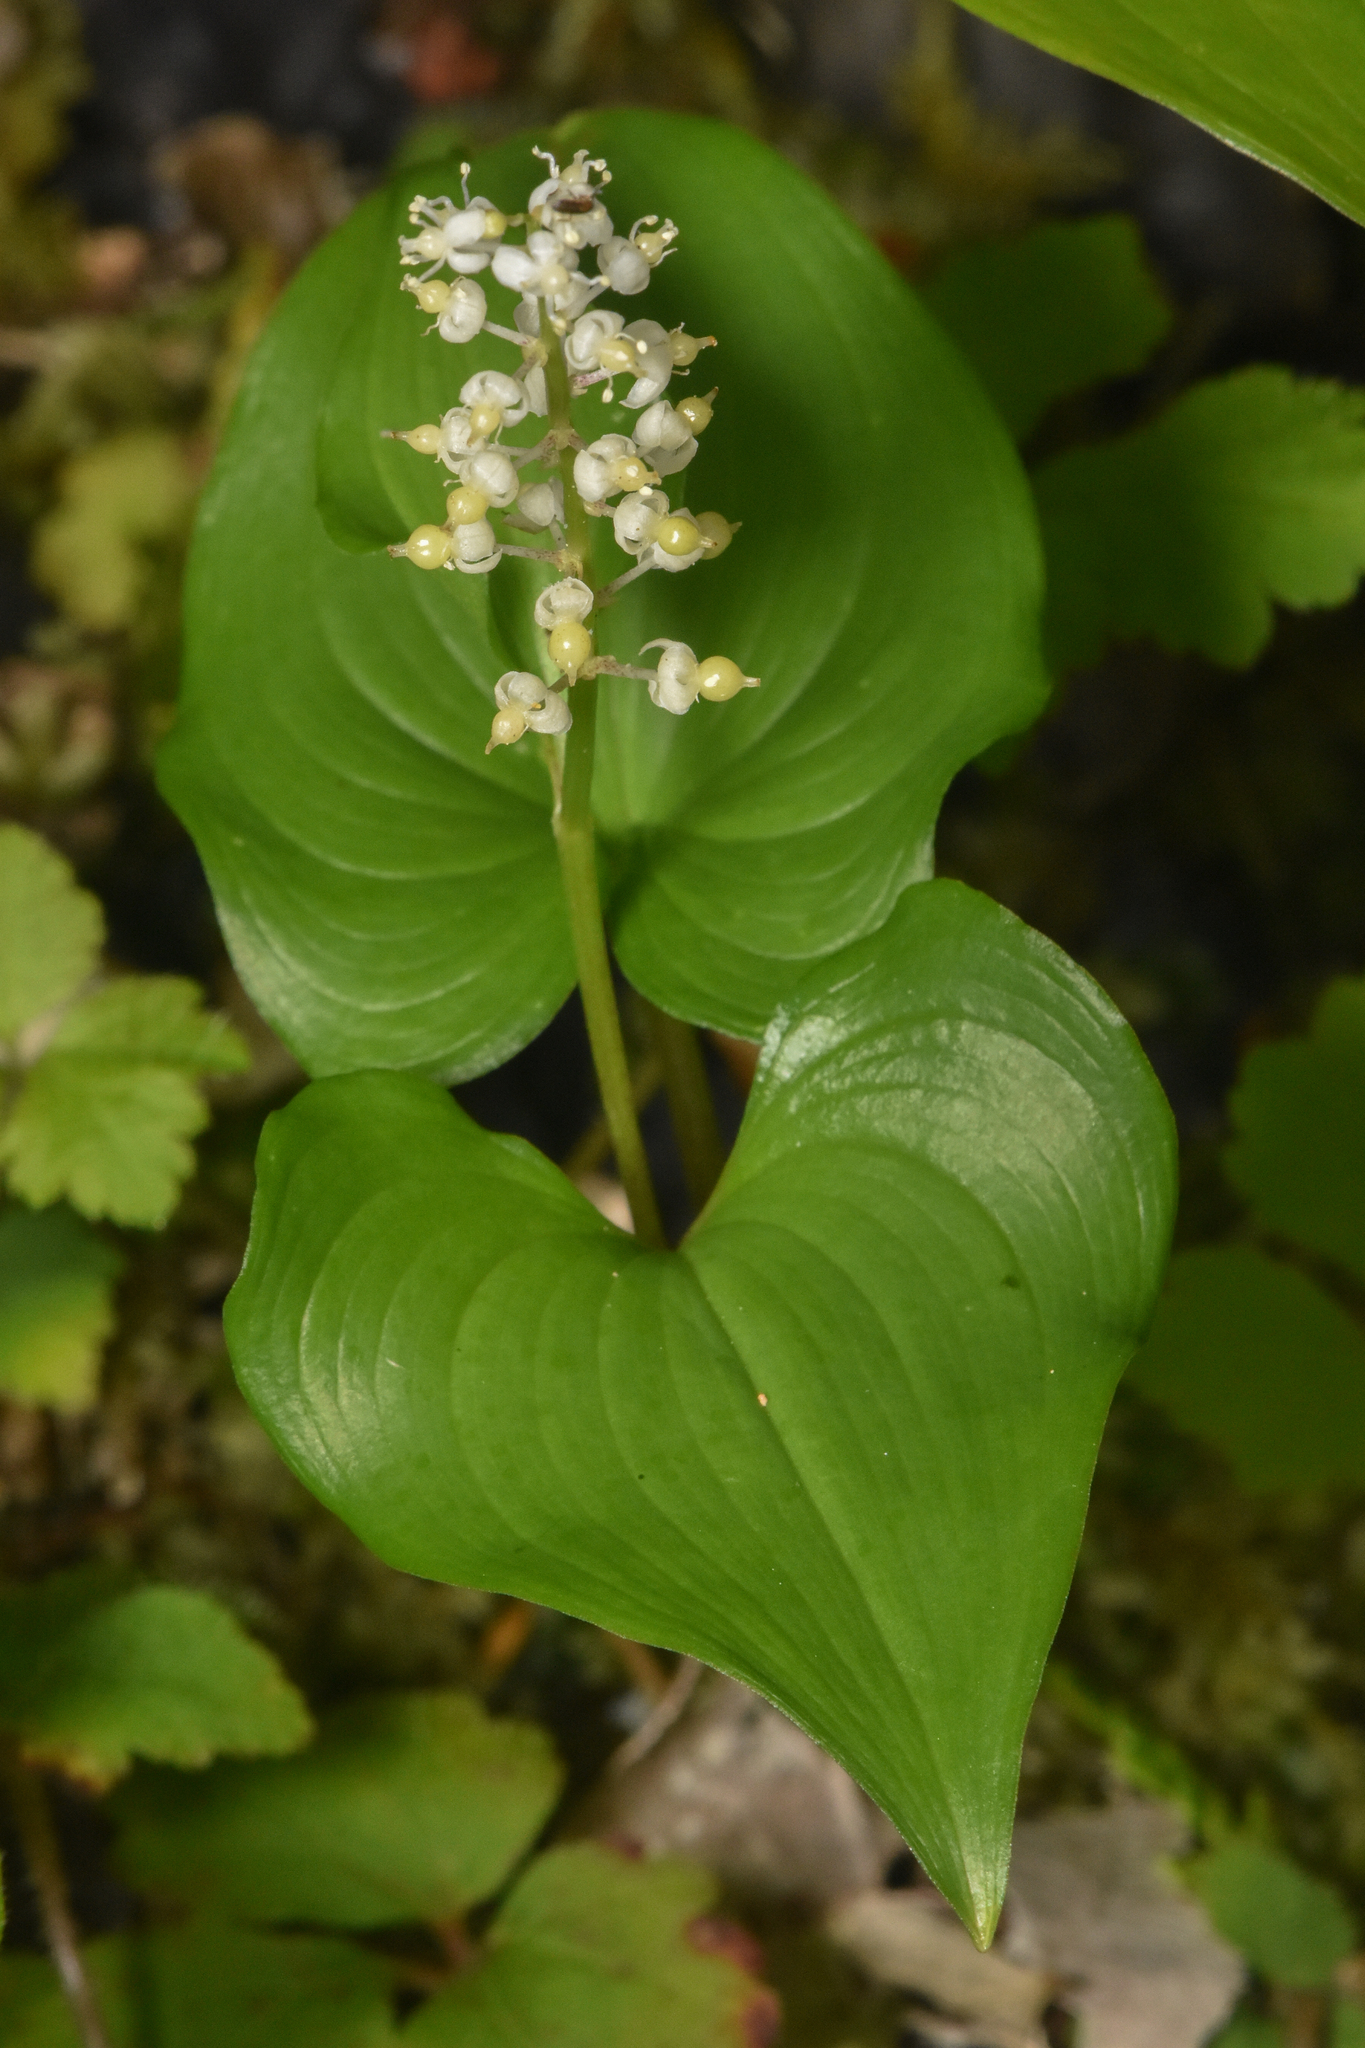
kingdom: Plantae
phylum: Tracheophyta
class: Liliopsida
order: Asparagales
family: Asparagaceae
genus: Maianthemum
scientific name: Maianthemum dilatatum
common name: False lily-of-the-valley
